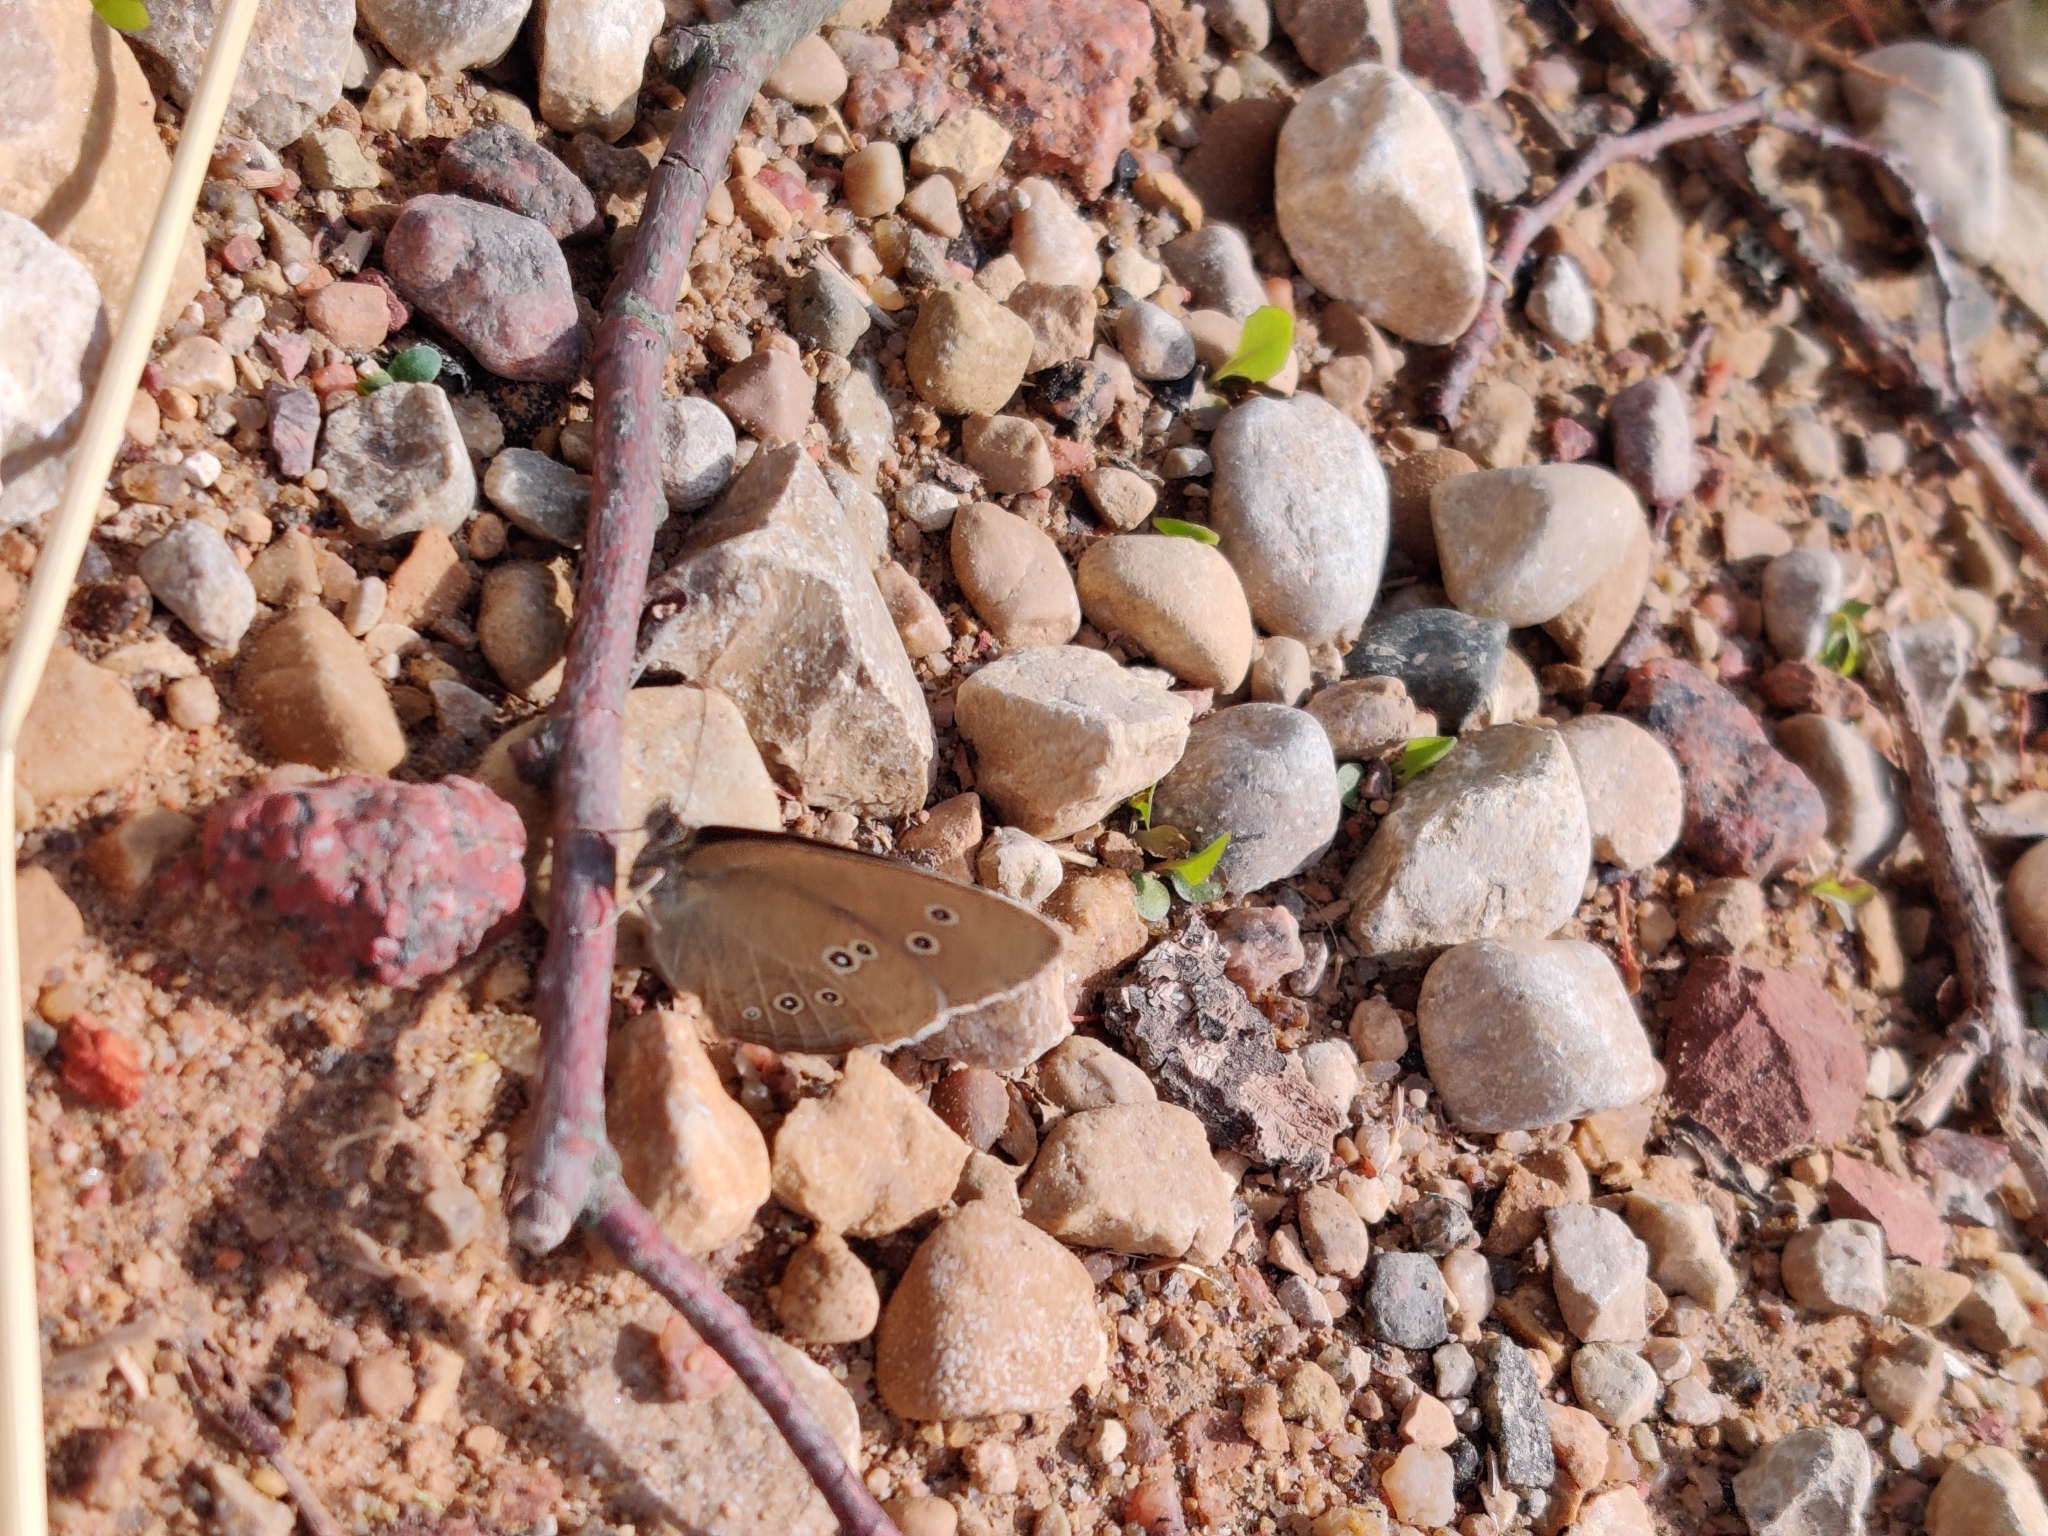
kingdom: Animalia
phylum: Arthropoda
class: Insecta
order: Lepidoptera
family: Nymphalidae
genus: Aphantopus
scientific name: Aphantopus hyperantus
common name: Ringlet
